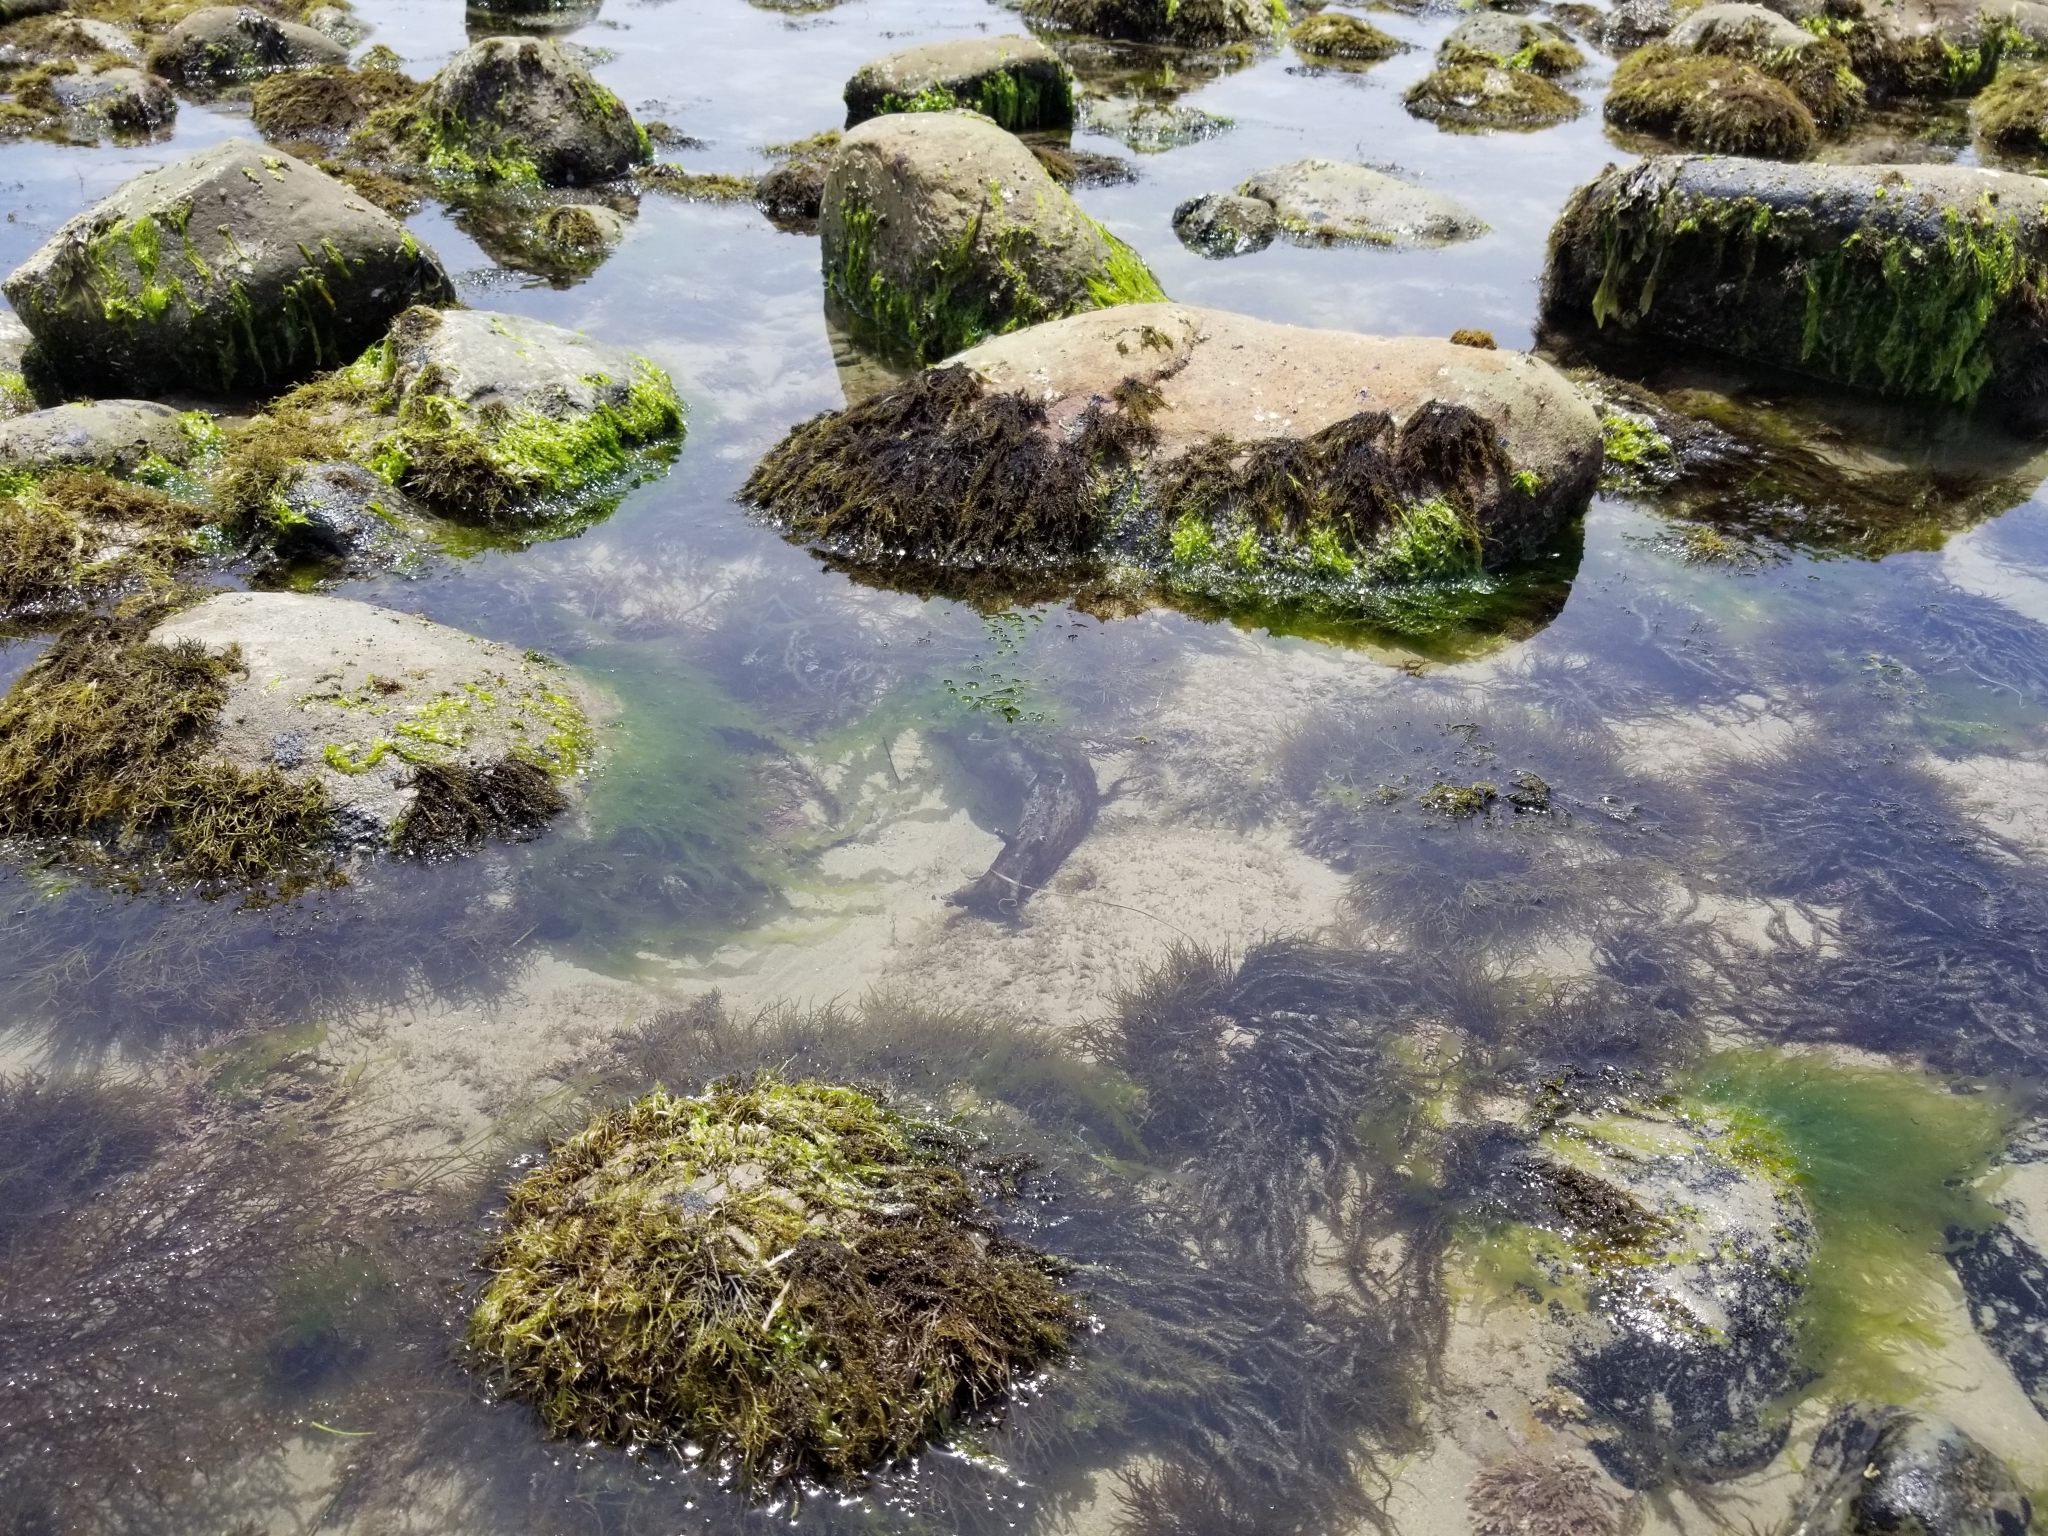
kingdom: Animalia
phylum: Mollusca
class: Gastropoda
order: Aplysiida
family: Aplysiidae
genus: Aplysia
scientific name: Aplysia californica
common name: California seahare
